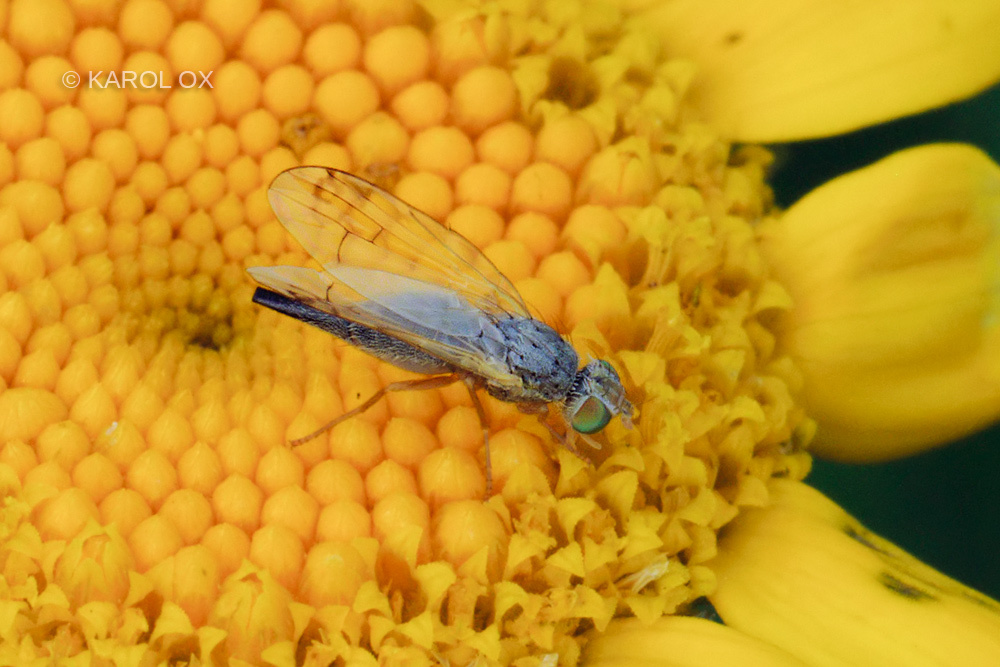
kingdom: Animalia
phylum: Arthropoda
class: Insecta
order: Diptera
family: Tephritidae
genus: Acanthiophilus
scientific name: Acanthiophilus helianthi
